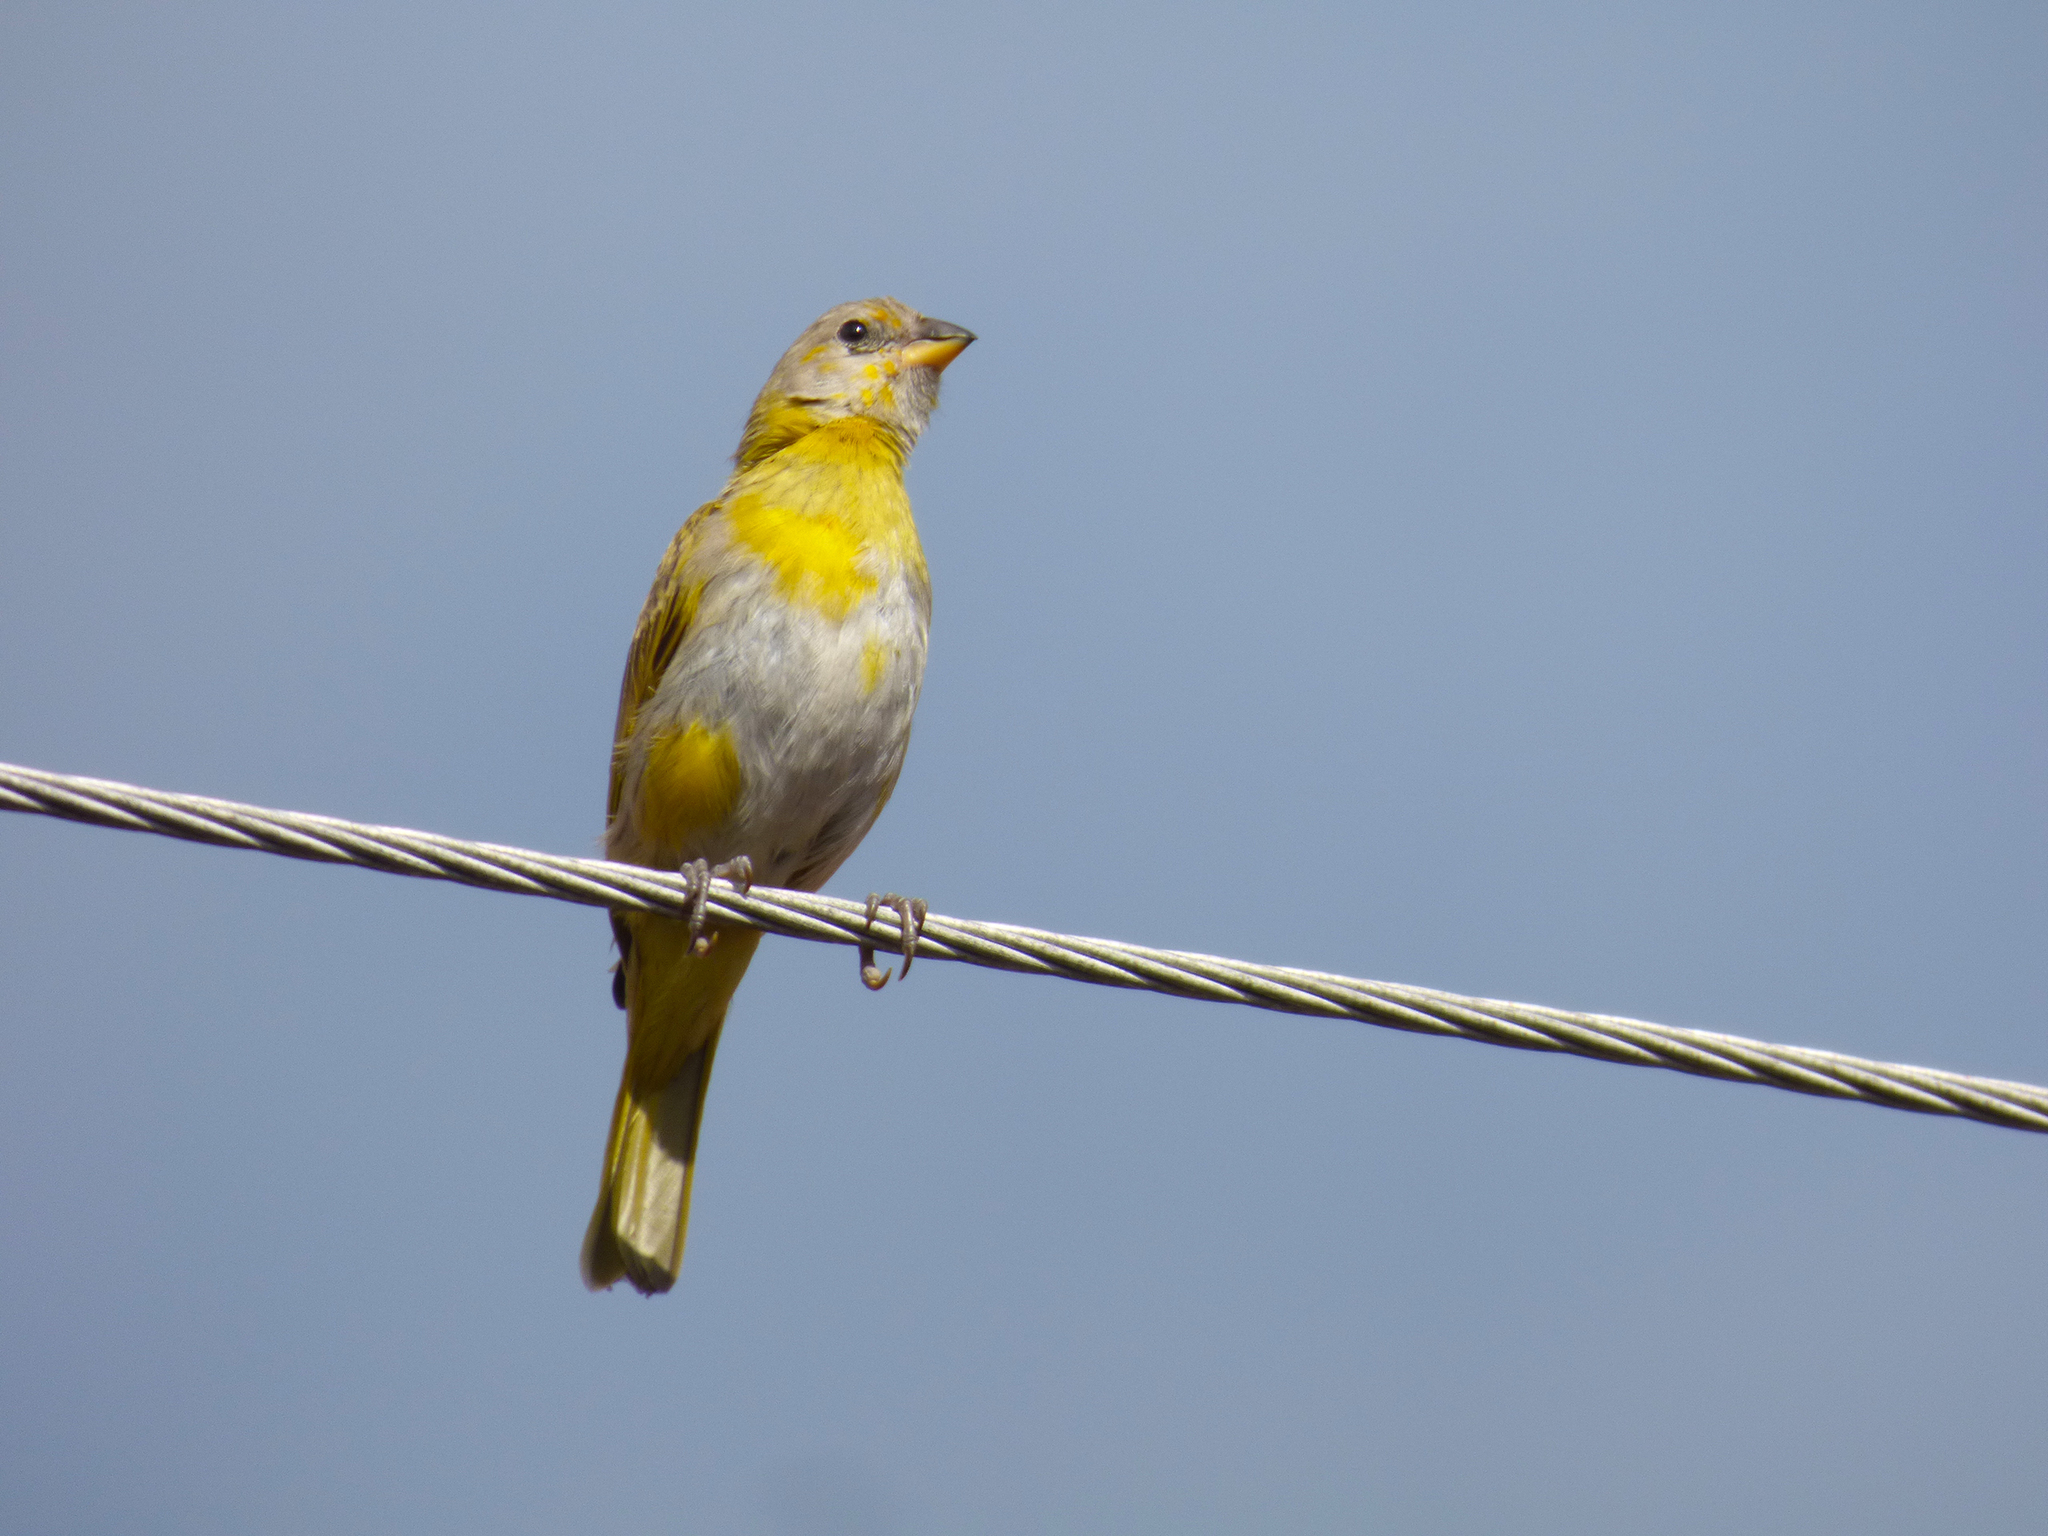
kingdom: Animalia
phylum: Chordata
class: Aves
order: Passeriformes
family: Thraupidae
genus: Sicalis
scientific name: Sicalis flaveola
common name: Saffron finch
